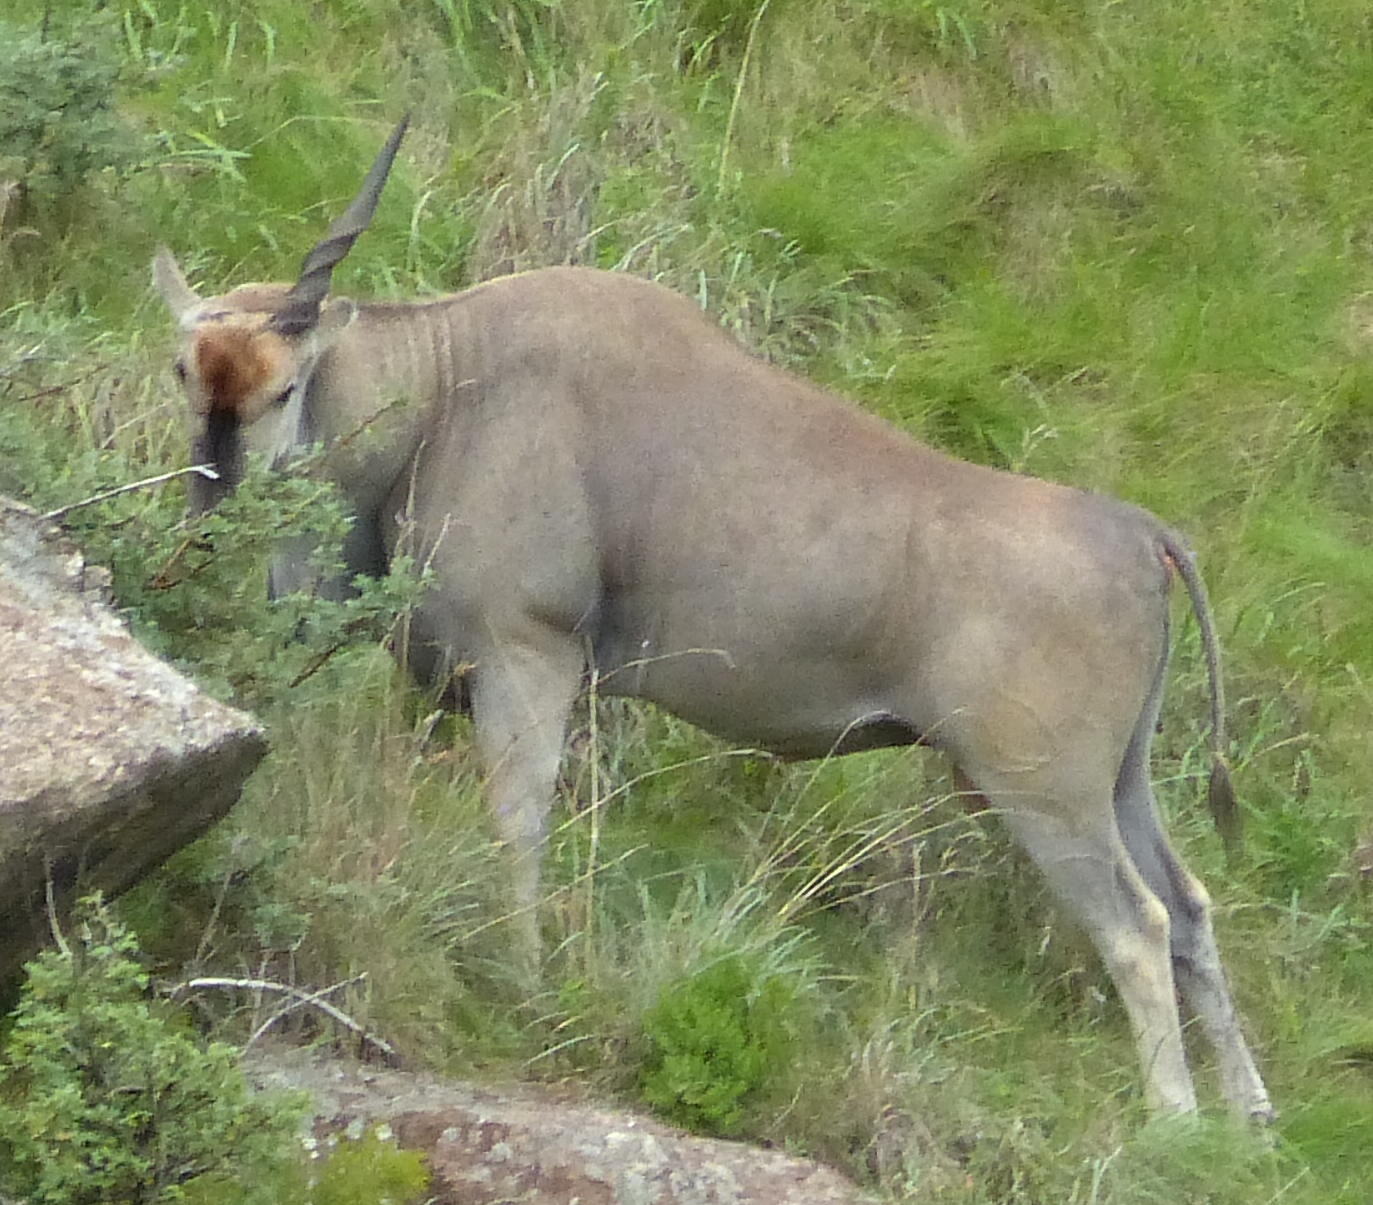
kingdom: Animalia
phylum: Chordata
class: Mammalia
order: Artiodactyla
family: Bovidae
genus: Taurotragus
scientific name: Taurotragus oryx
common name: Common eland
